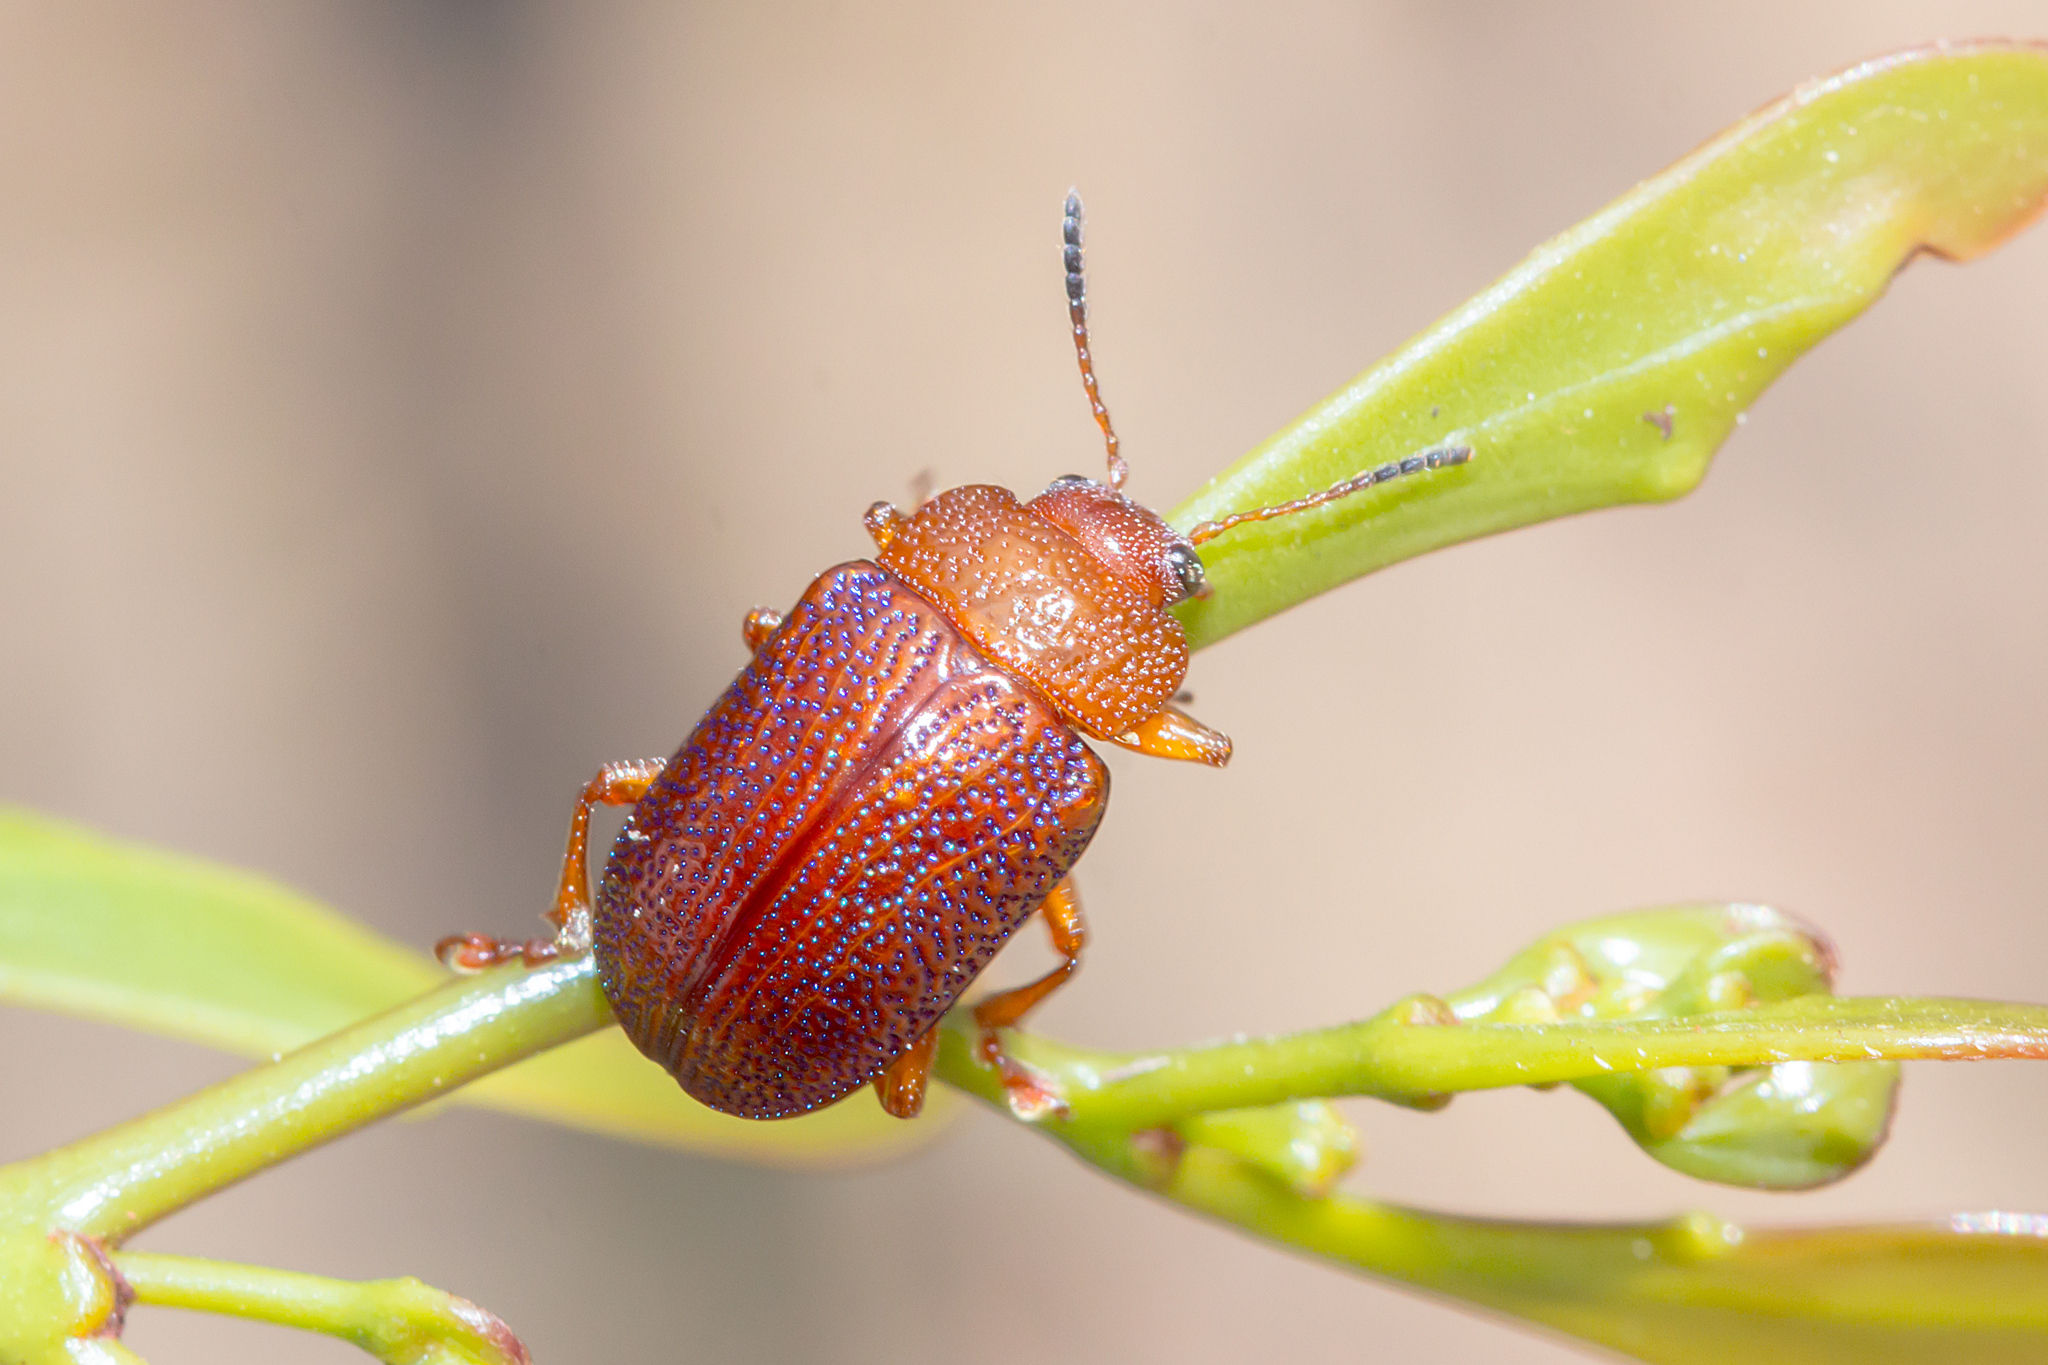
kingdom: Animalia
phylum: Arthropoda
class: Insecta
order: Coleoptera
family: Chrysomelidae
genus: Calomela
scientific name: Calomela
